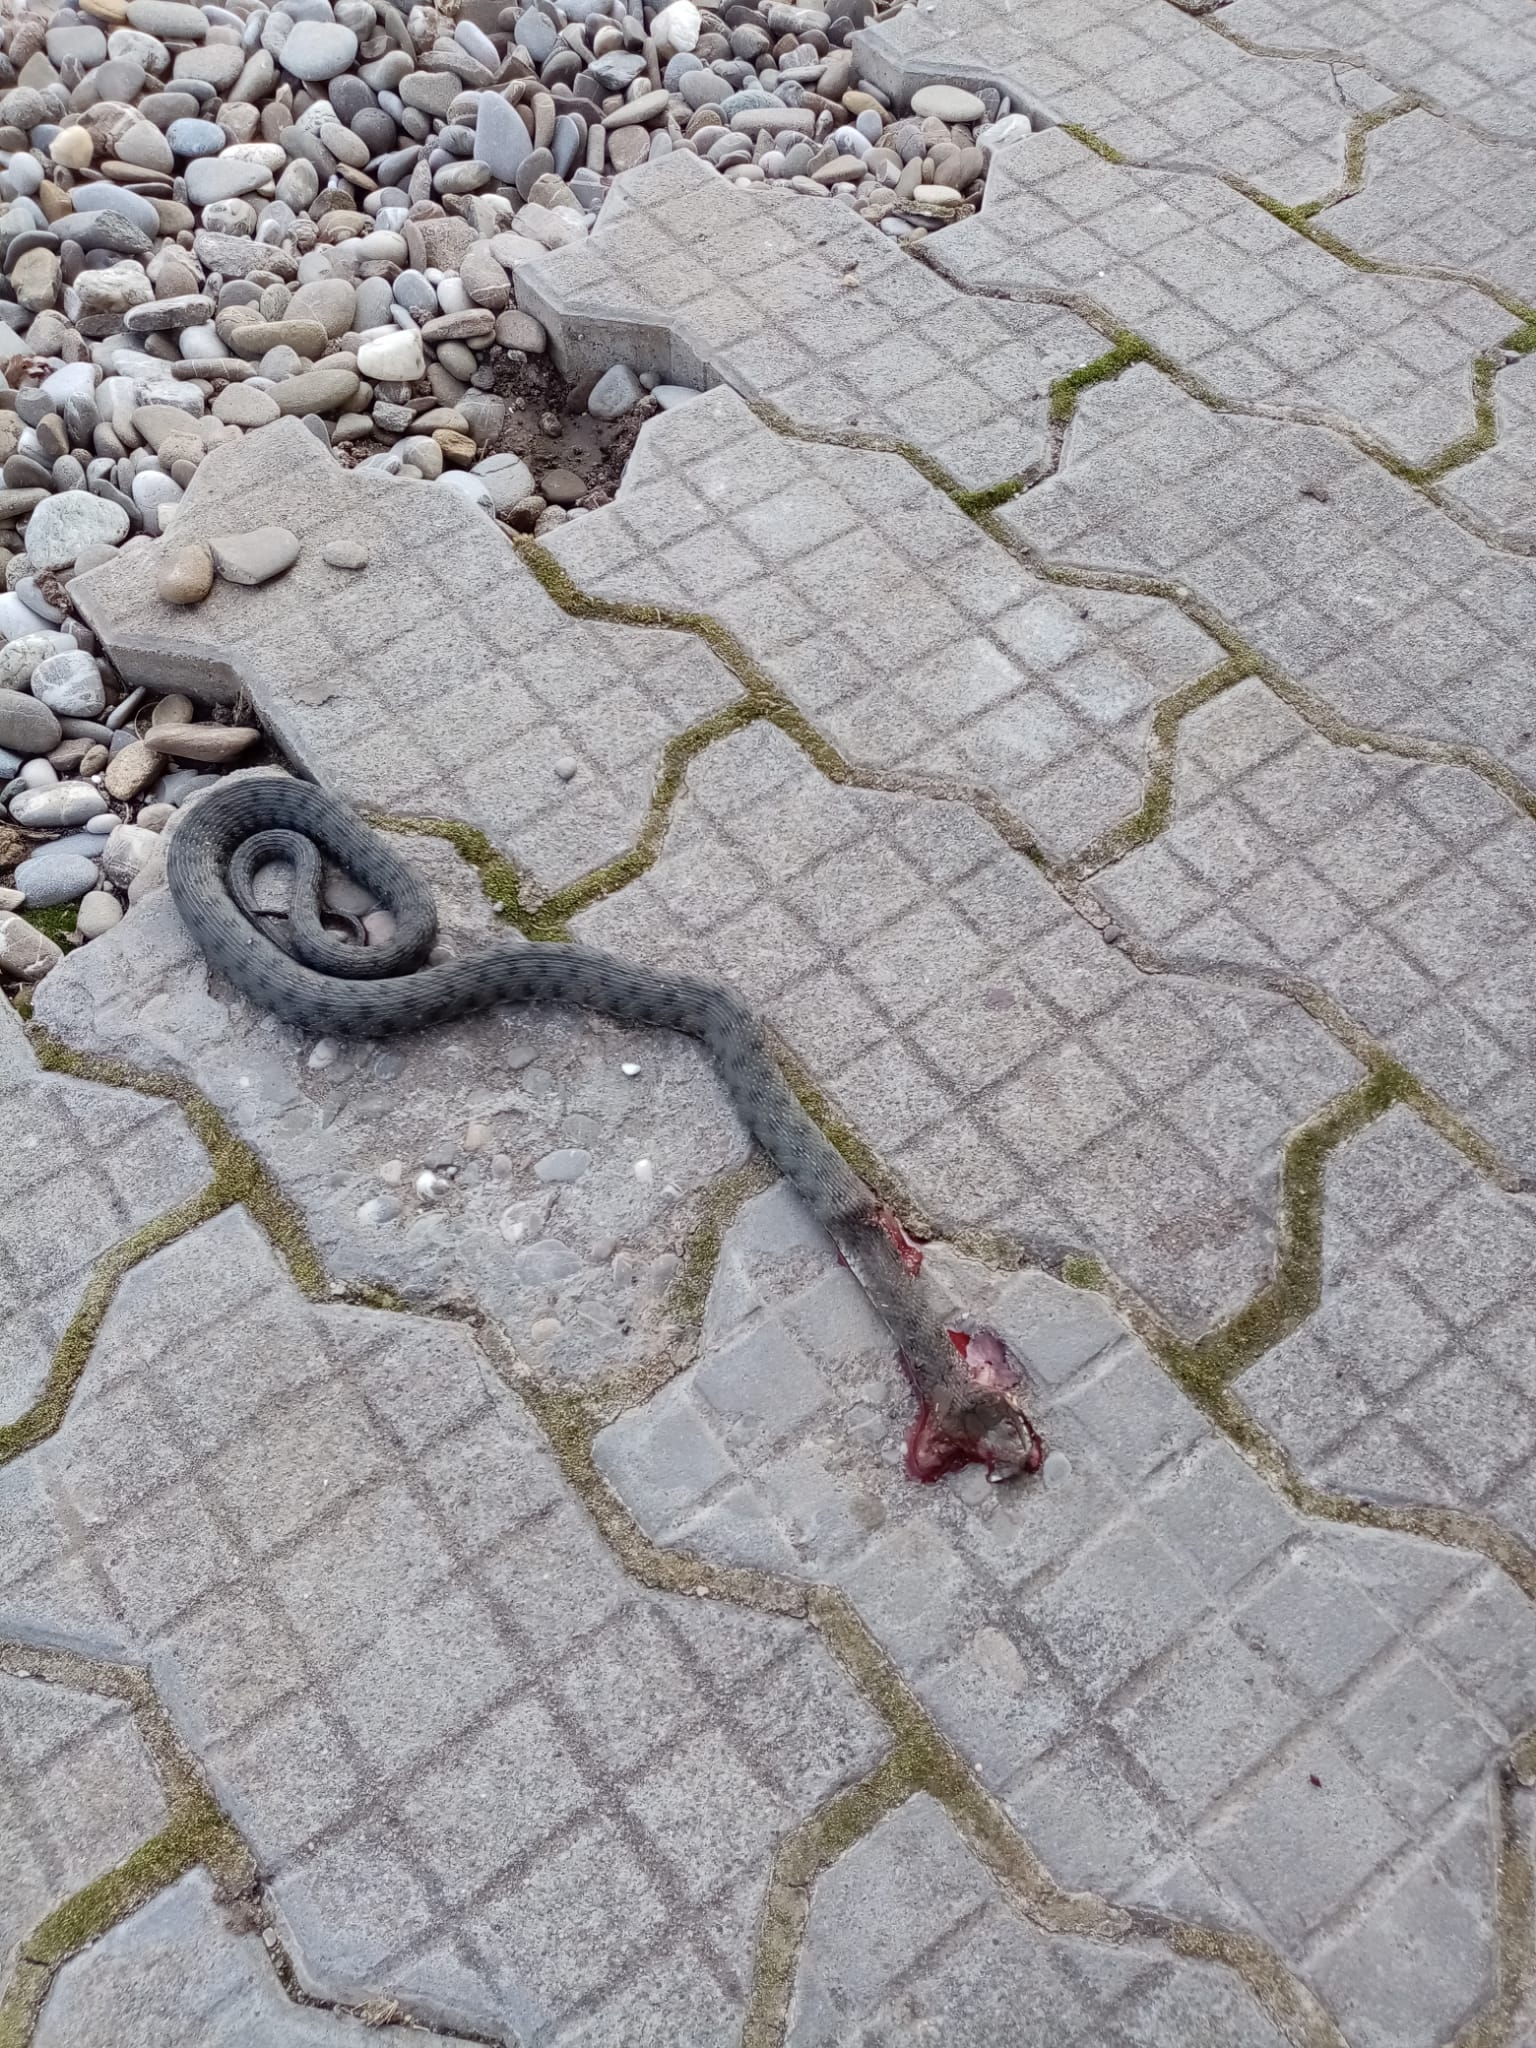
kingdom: Animalia
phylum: Chordata
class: Squamata
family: Colubridae
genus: Natrix
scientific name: Natrix tessellata
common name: Dice snake
